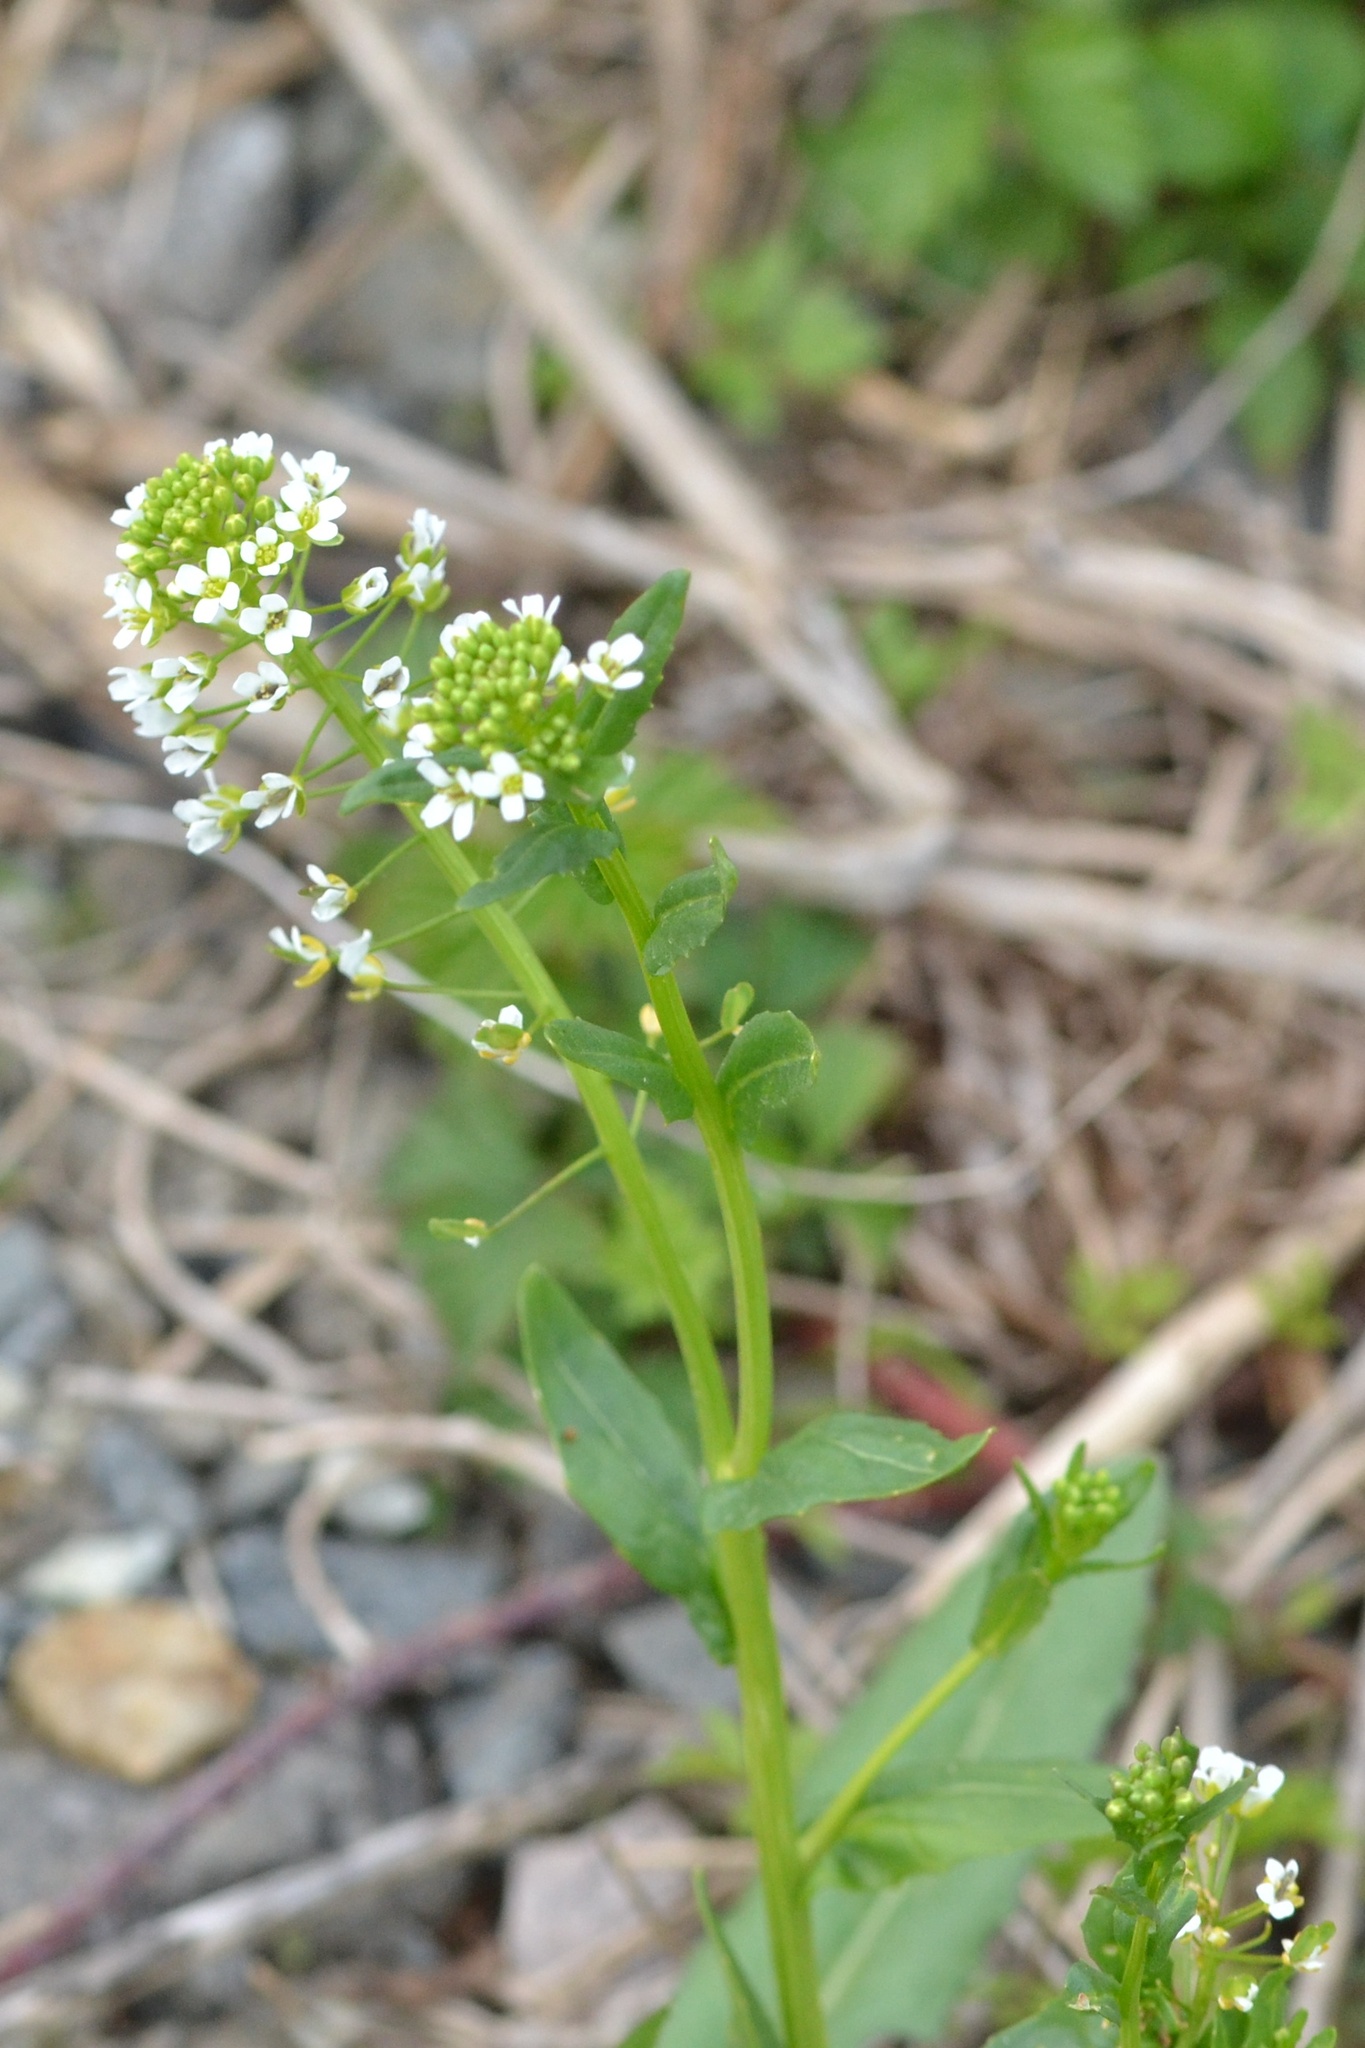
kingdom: Plantae
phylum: Tracheophyta
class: Magnoliopsida
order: Brassicales
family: Brassicaceae
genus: Thlaspi
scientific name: Thlaspi arvense
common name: Field pennycress
